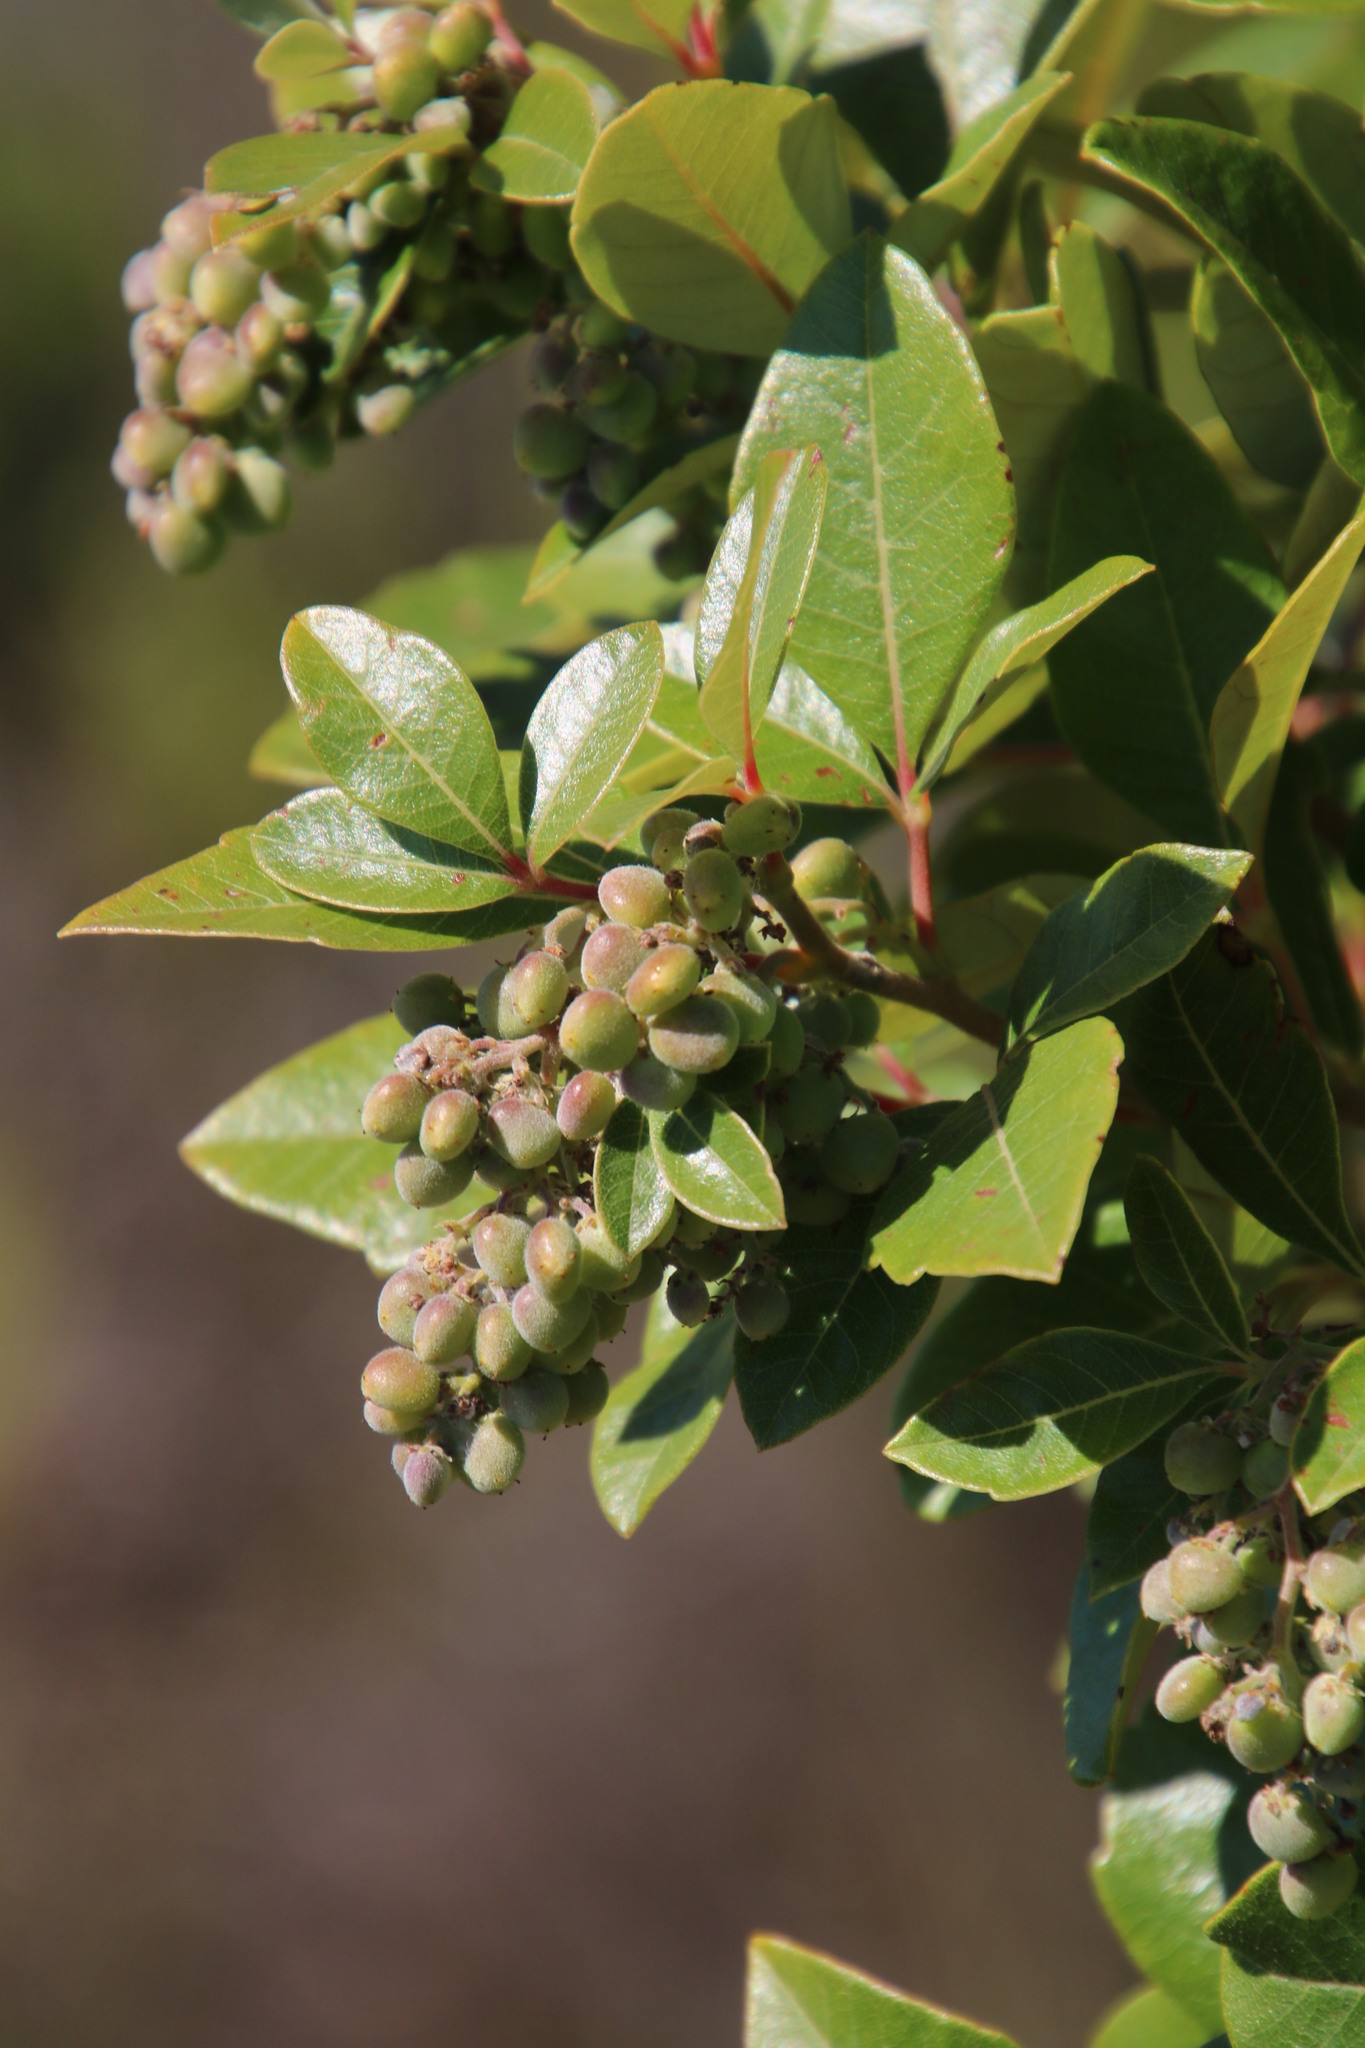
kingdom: Plantae
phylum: Tracheophyta
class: Magnoliopsida
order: Sapindales
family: Anacardiaceae
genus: Searsia
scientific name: Searsia tomentosa
